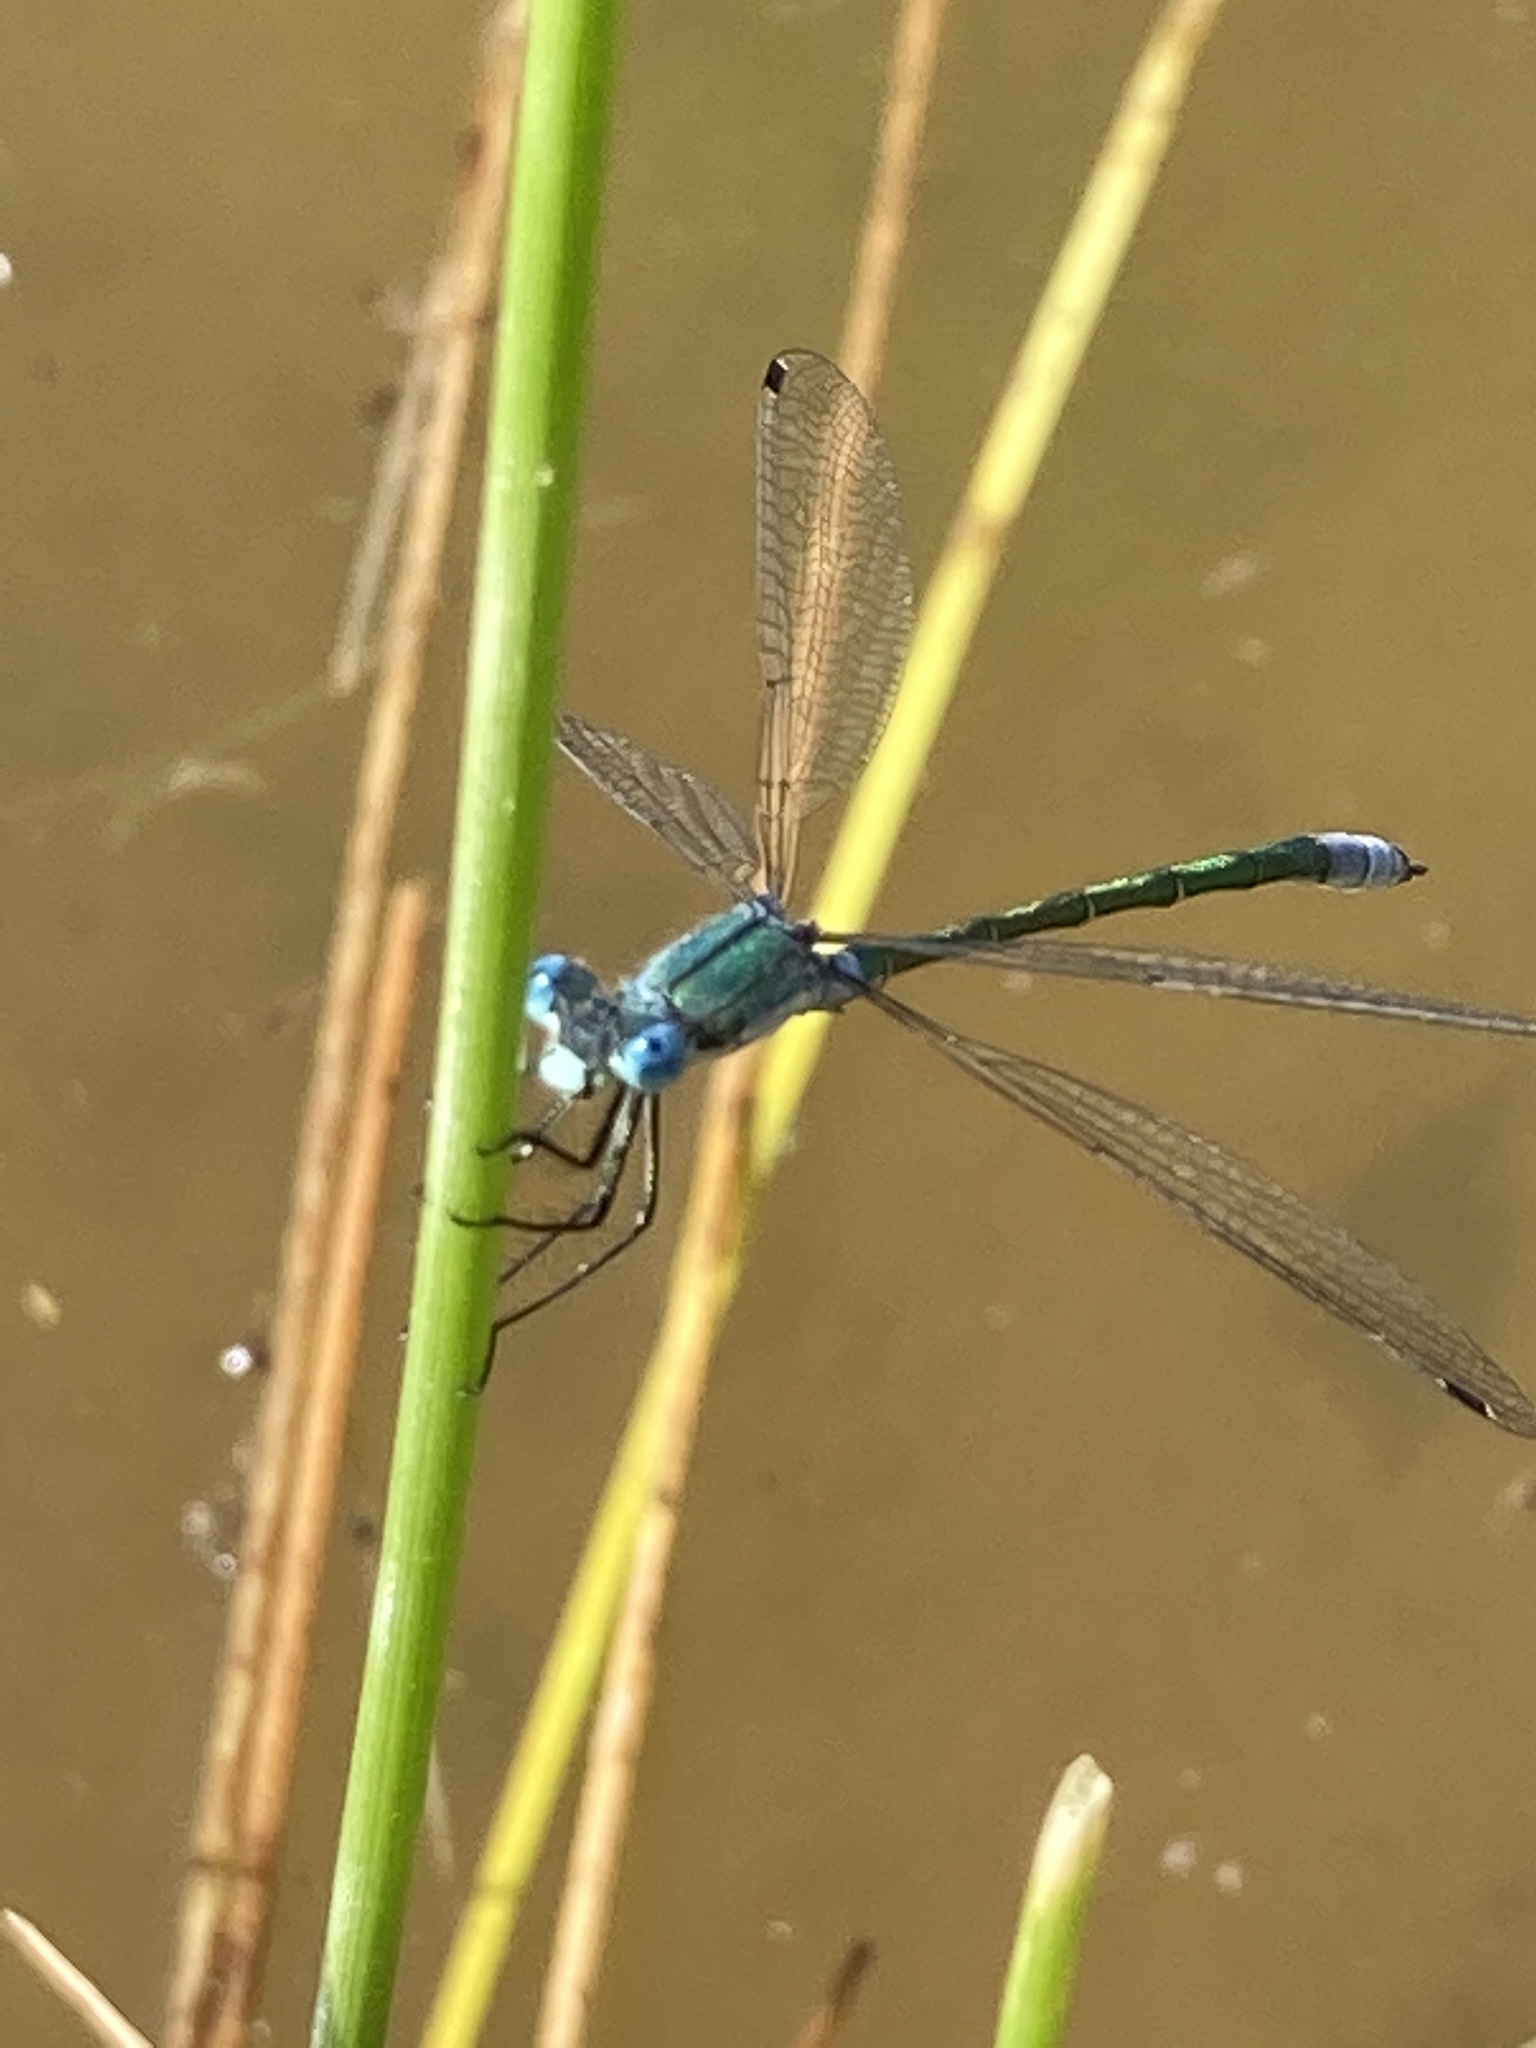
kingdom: Animalia
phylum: Arthropoda
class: Insecta
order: Odonata
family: Lestidae
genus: Lestes
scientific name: Lestes dryas
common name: Scarce emerald damselfly
